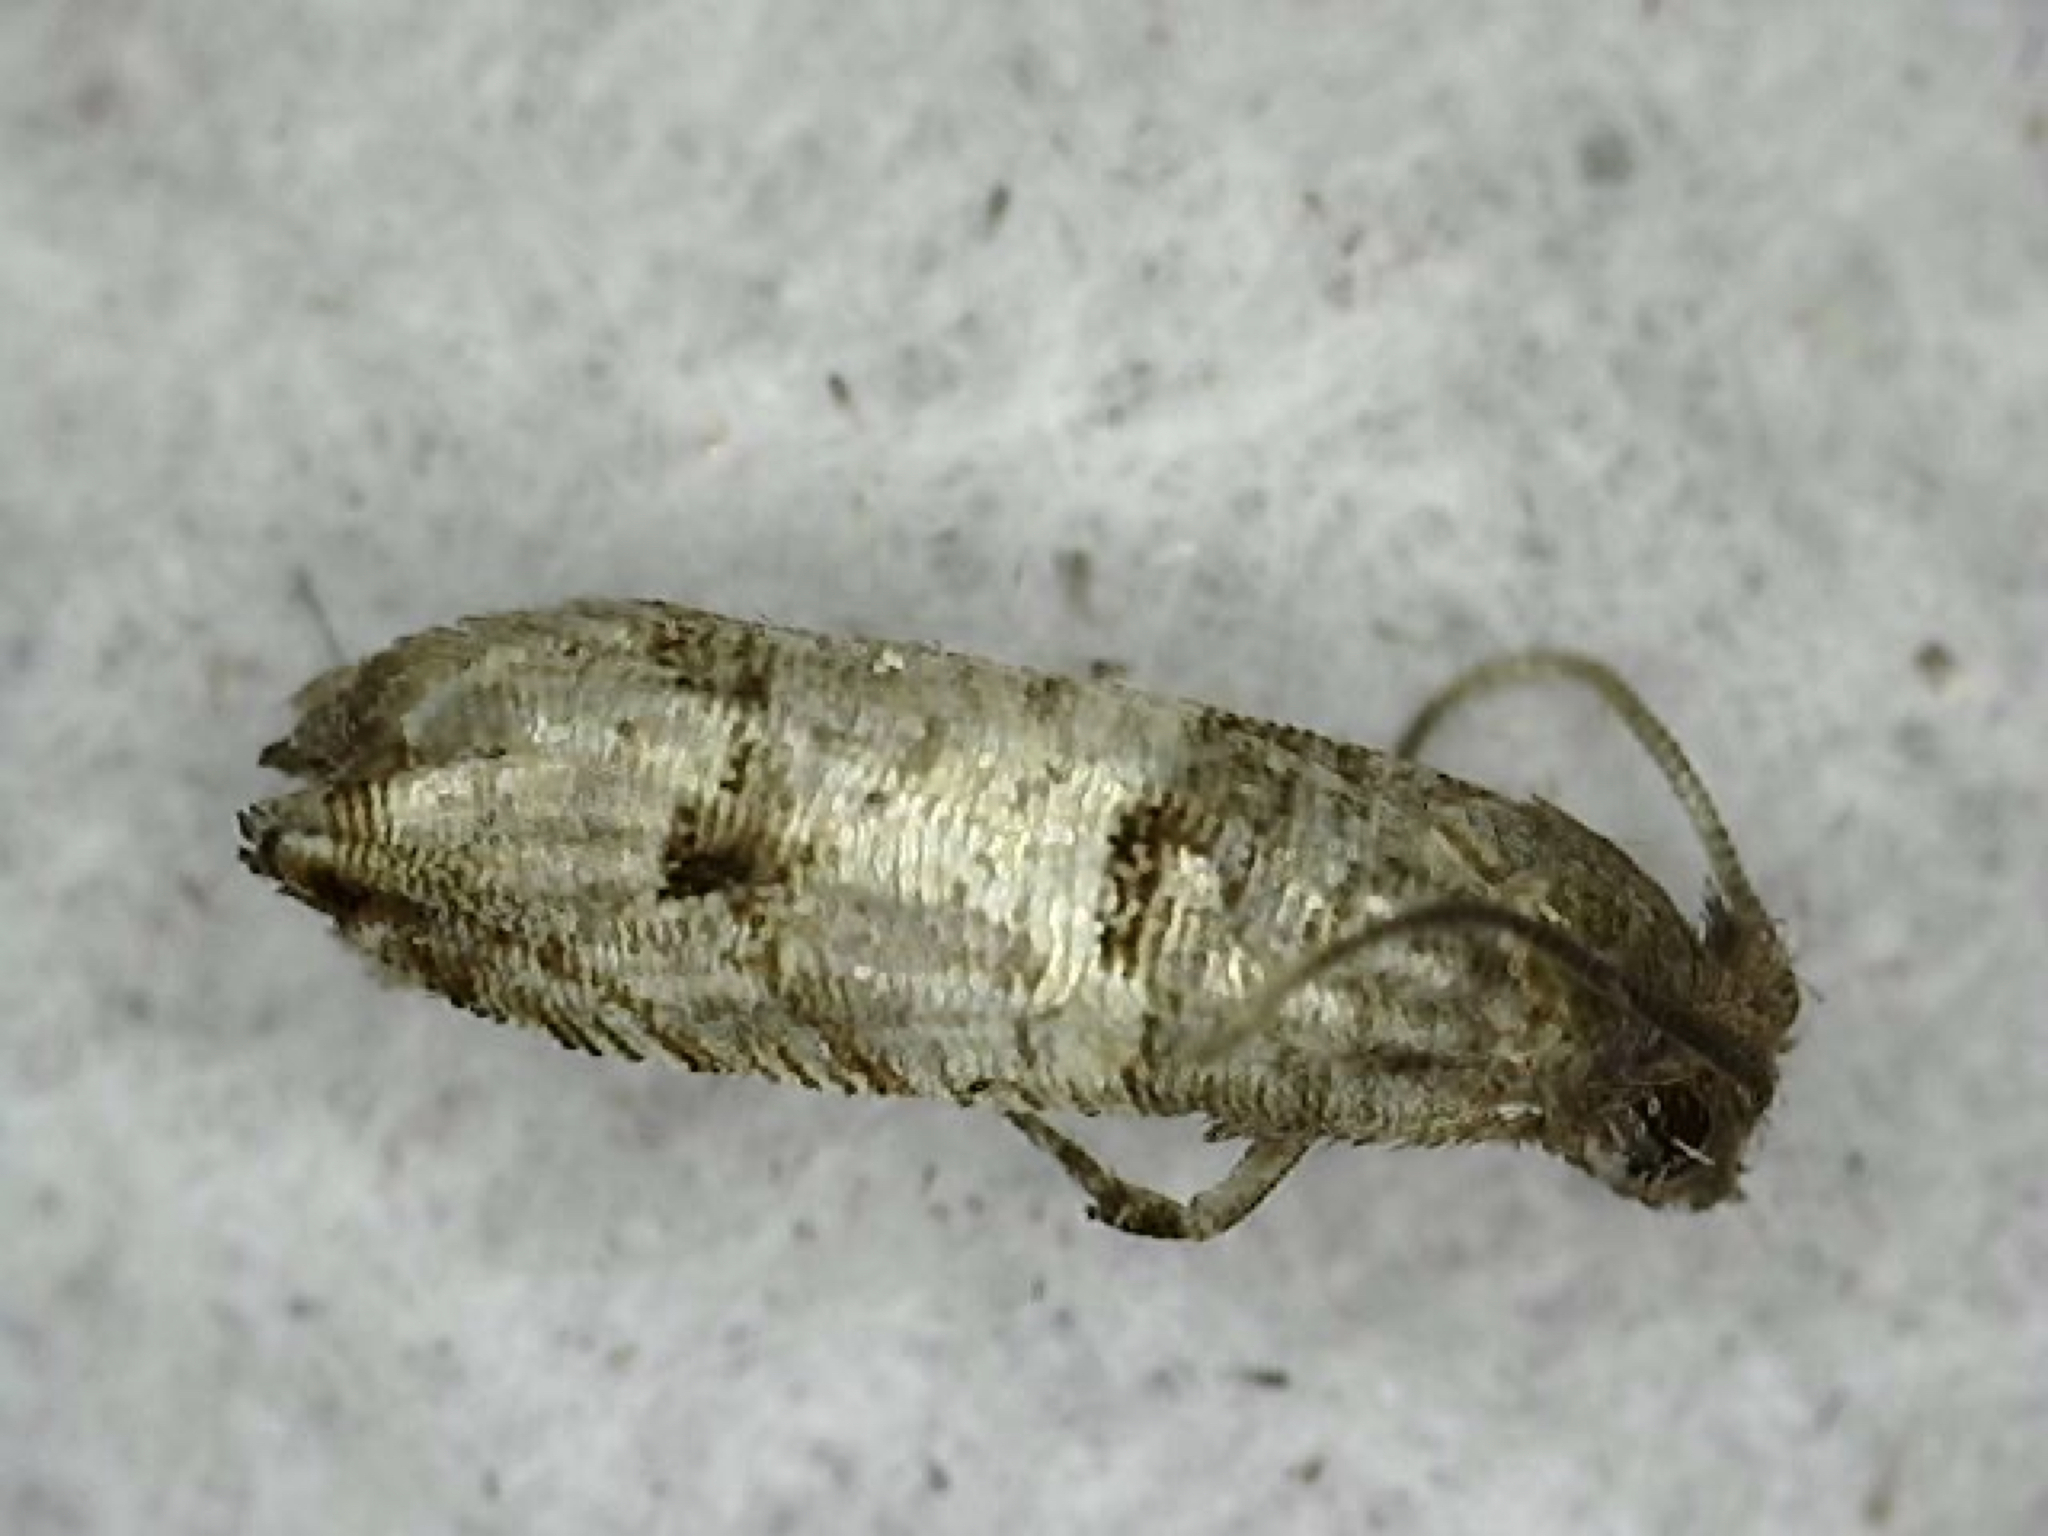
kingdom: Animalia
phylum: Arthropoda
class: Insecta
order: Lepidoptera
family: Tortricidae
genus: Larisa
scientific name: Larisa subsolana
